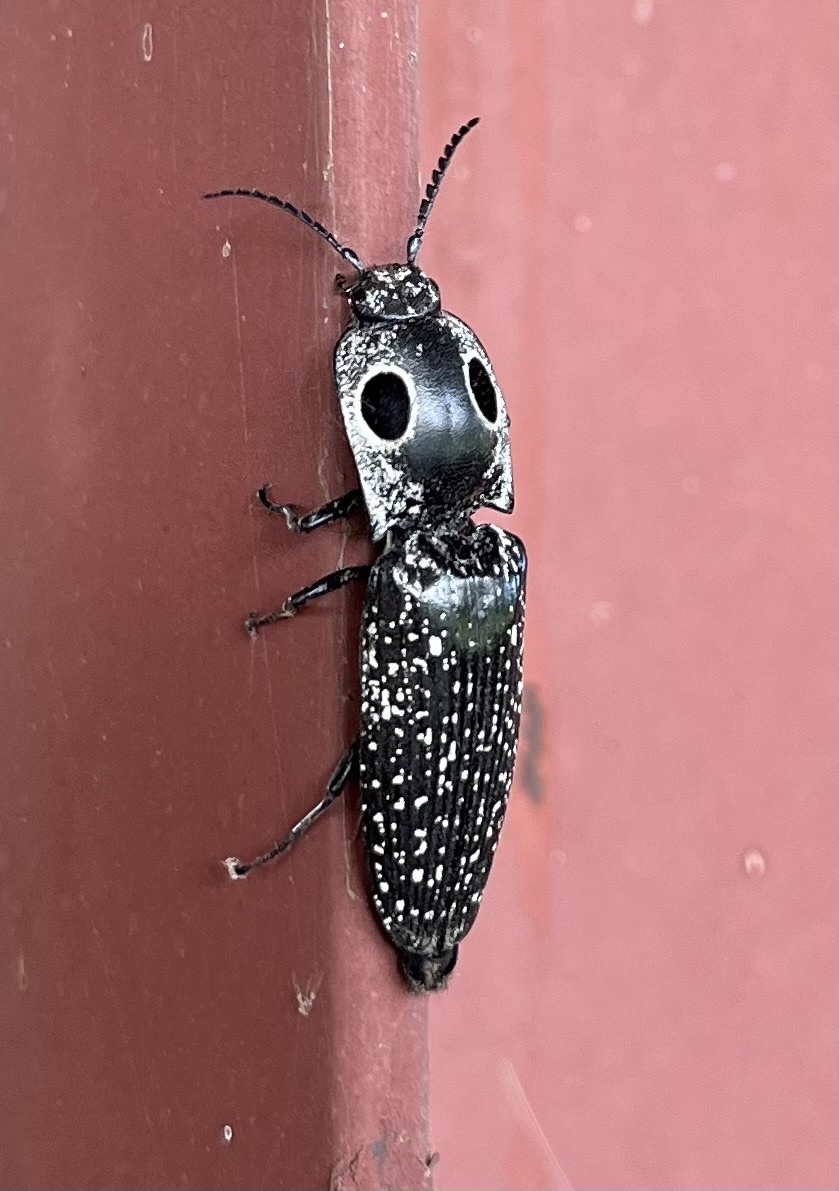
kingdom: Animalia
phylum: Arthropoda
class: Insecta
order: Coleoptera
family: Elateridae
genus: Alaus
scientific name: Alaus oculatus
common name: Eastern eyed click beetle
